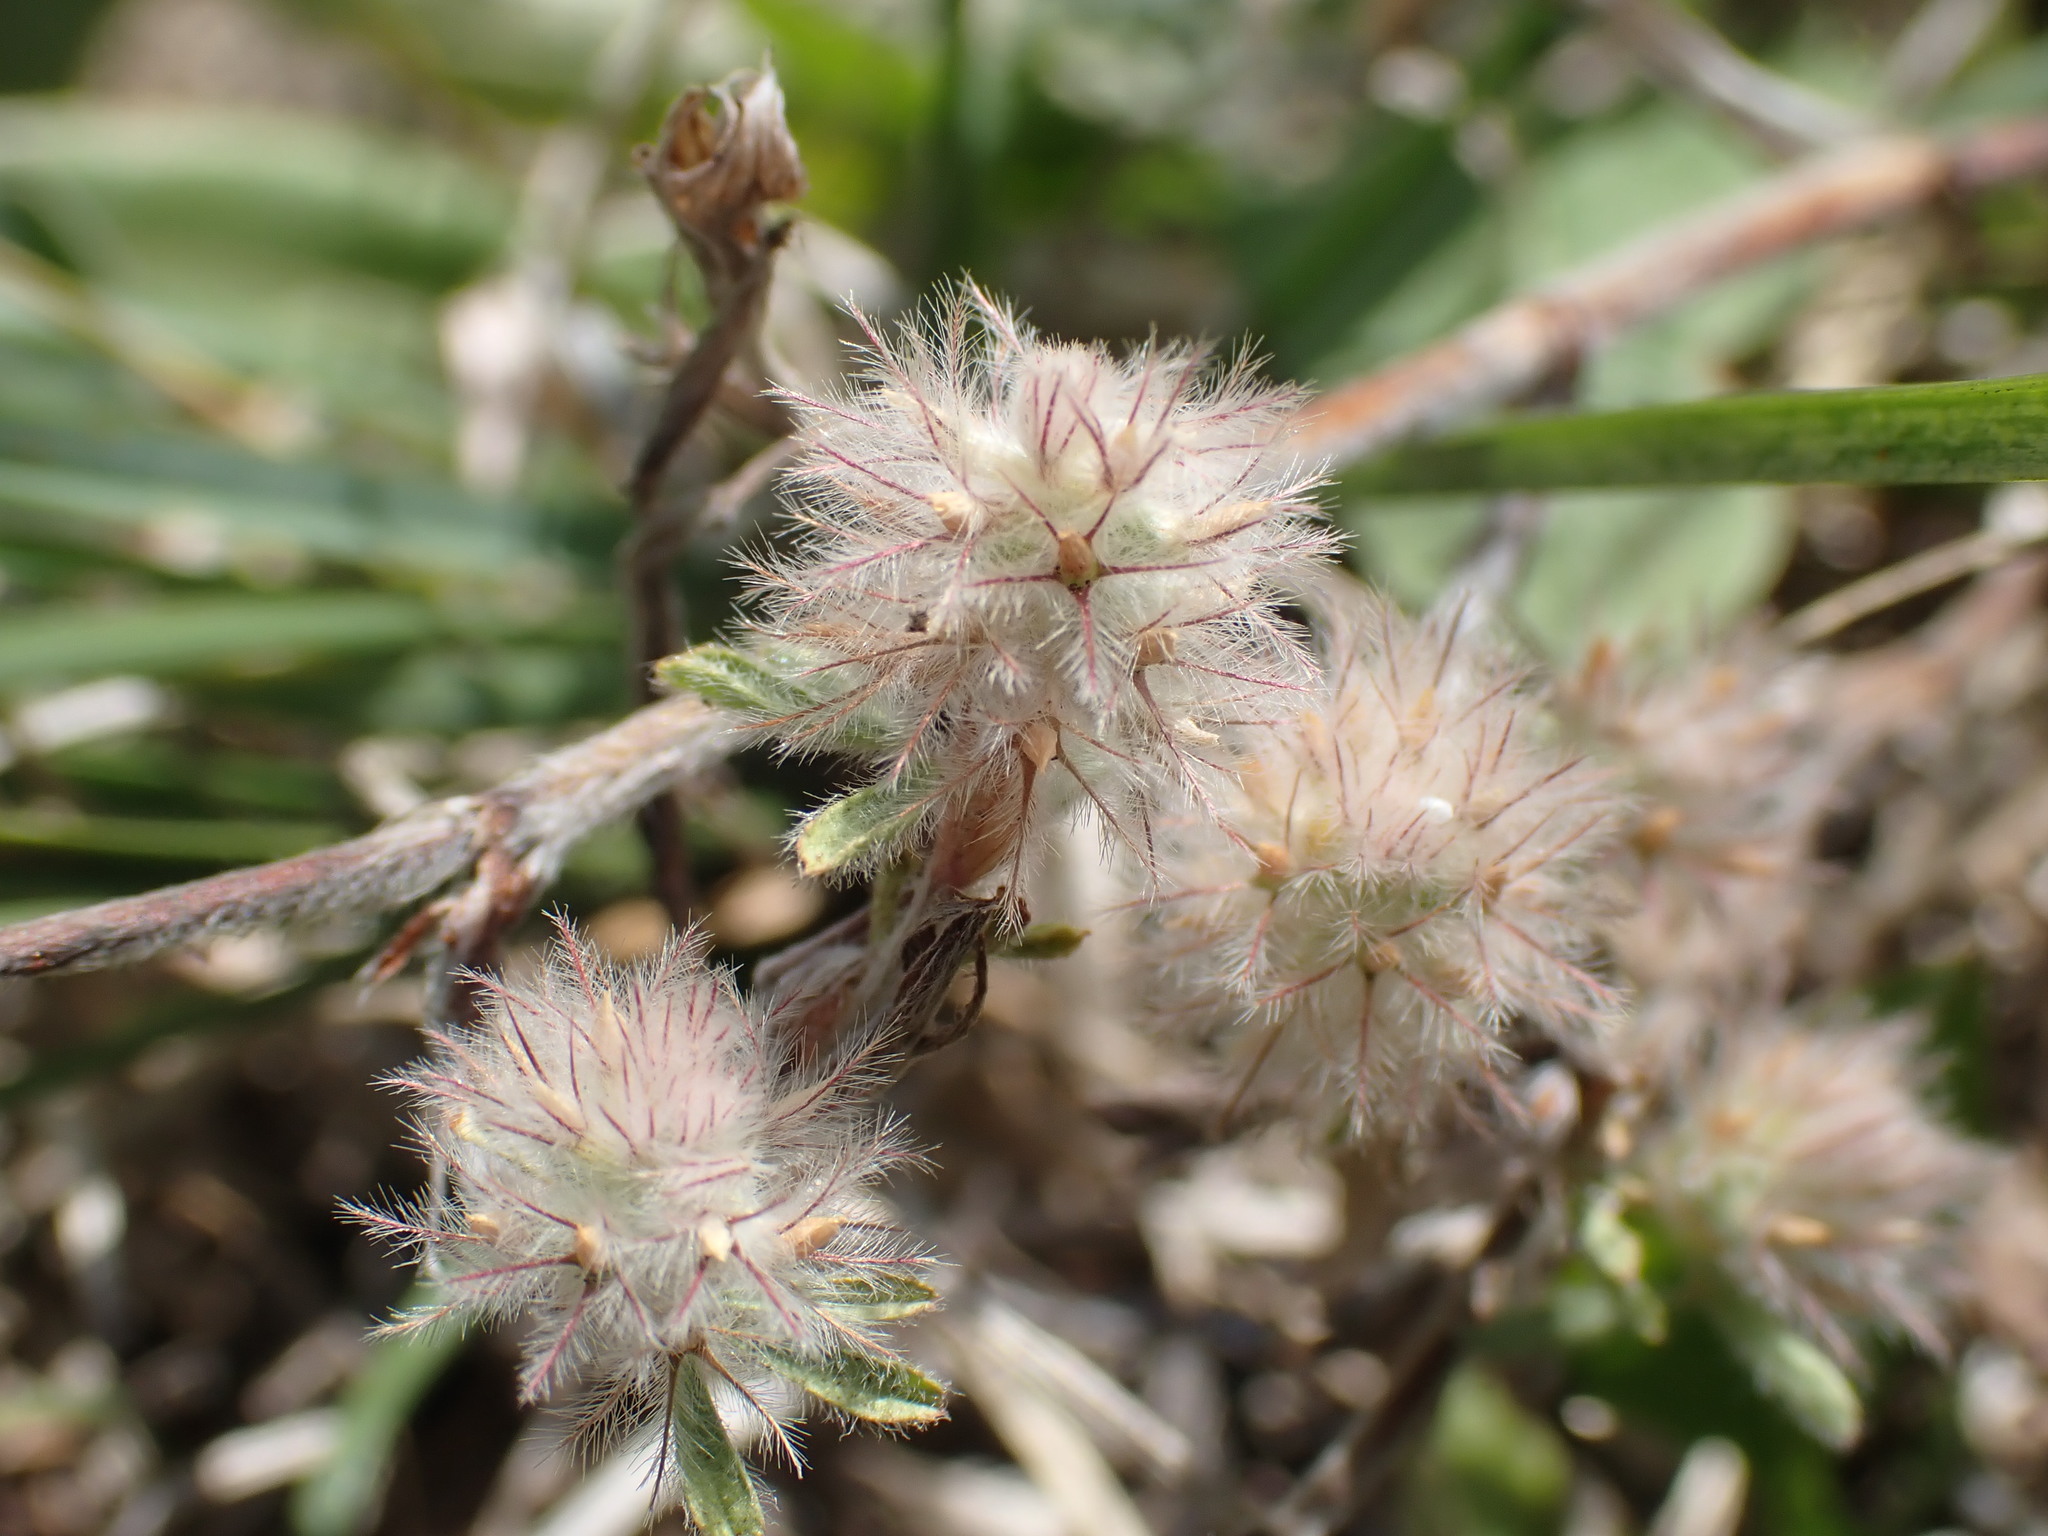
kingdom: Plantae
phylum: Tracheophyta
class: Magnoliopsida
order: Fabales
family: Fabaceae
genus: Trifolium
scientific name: Trifolium arvense
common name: Hare's-foot clover
